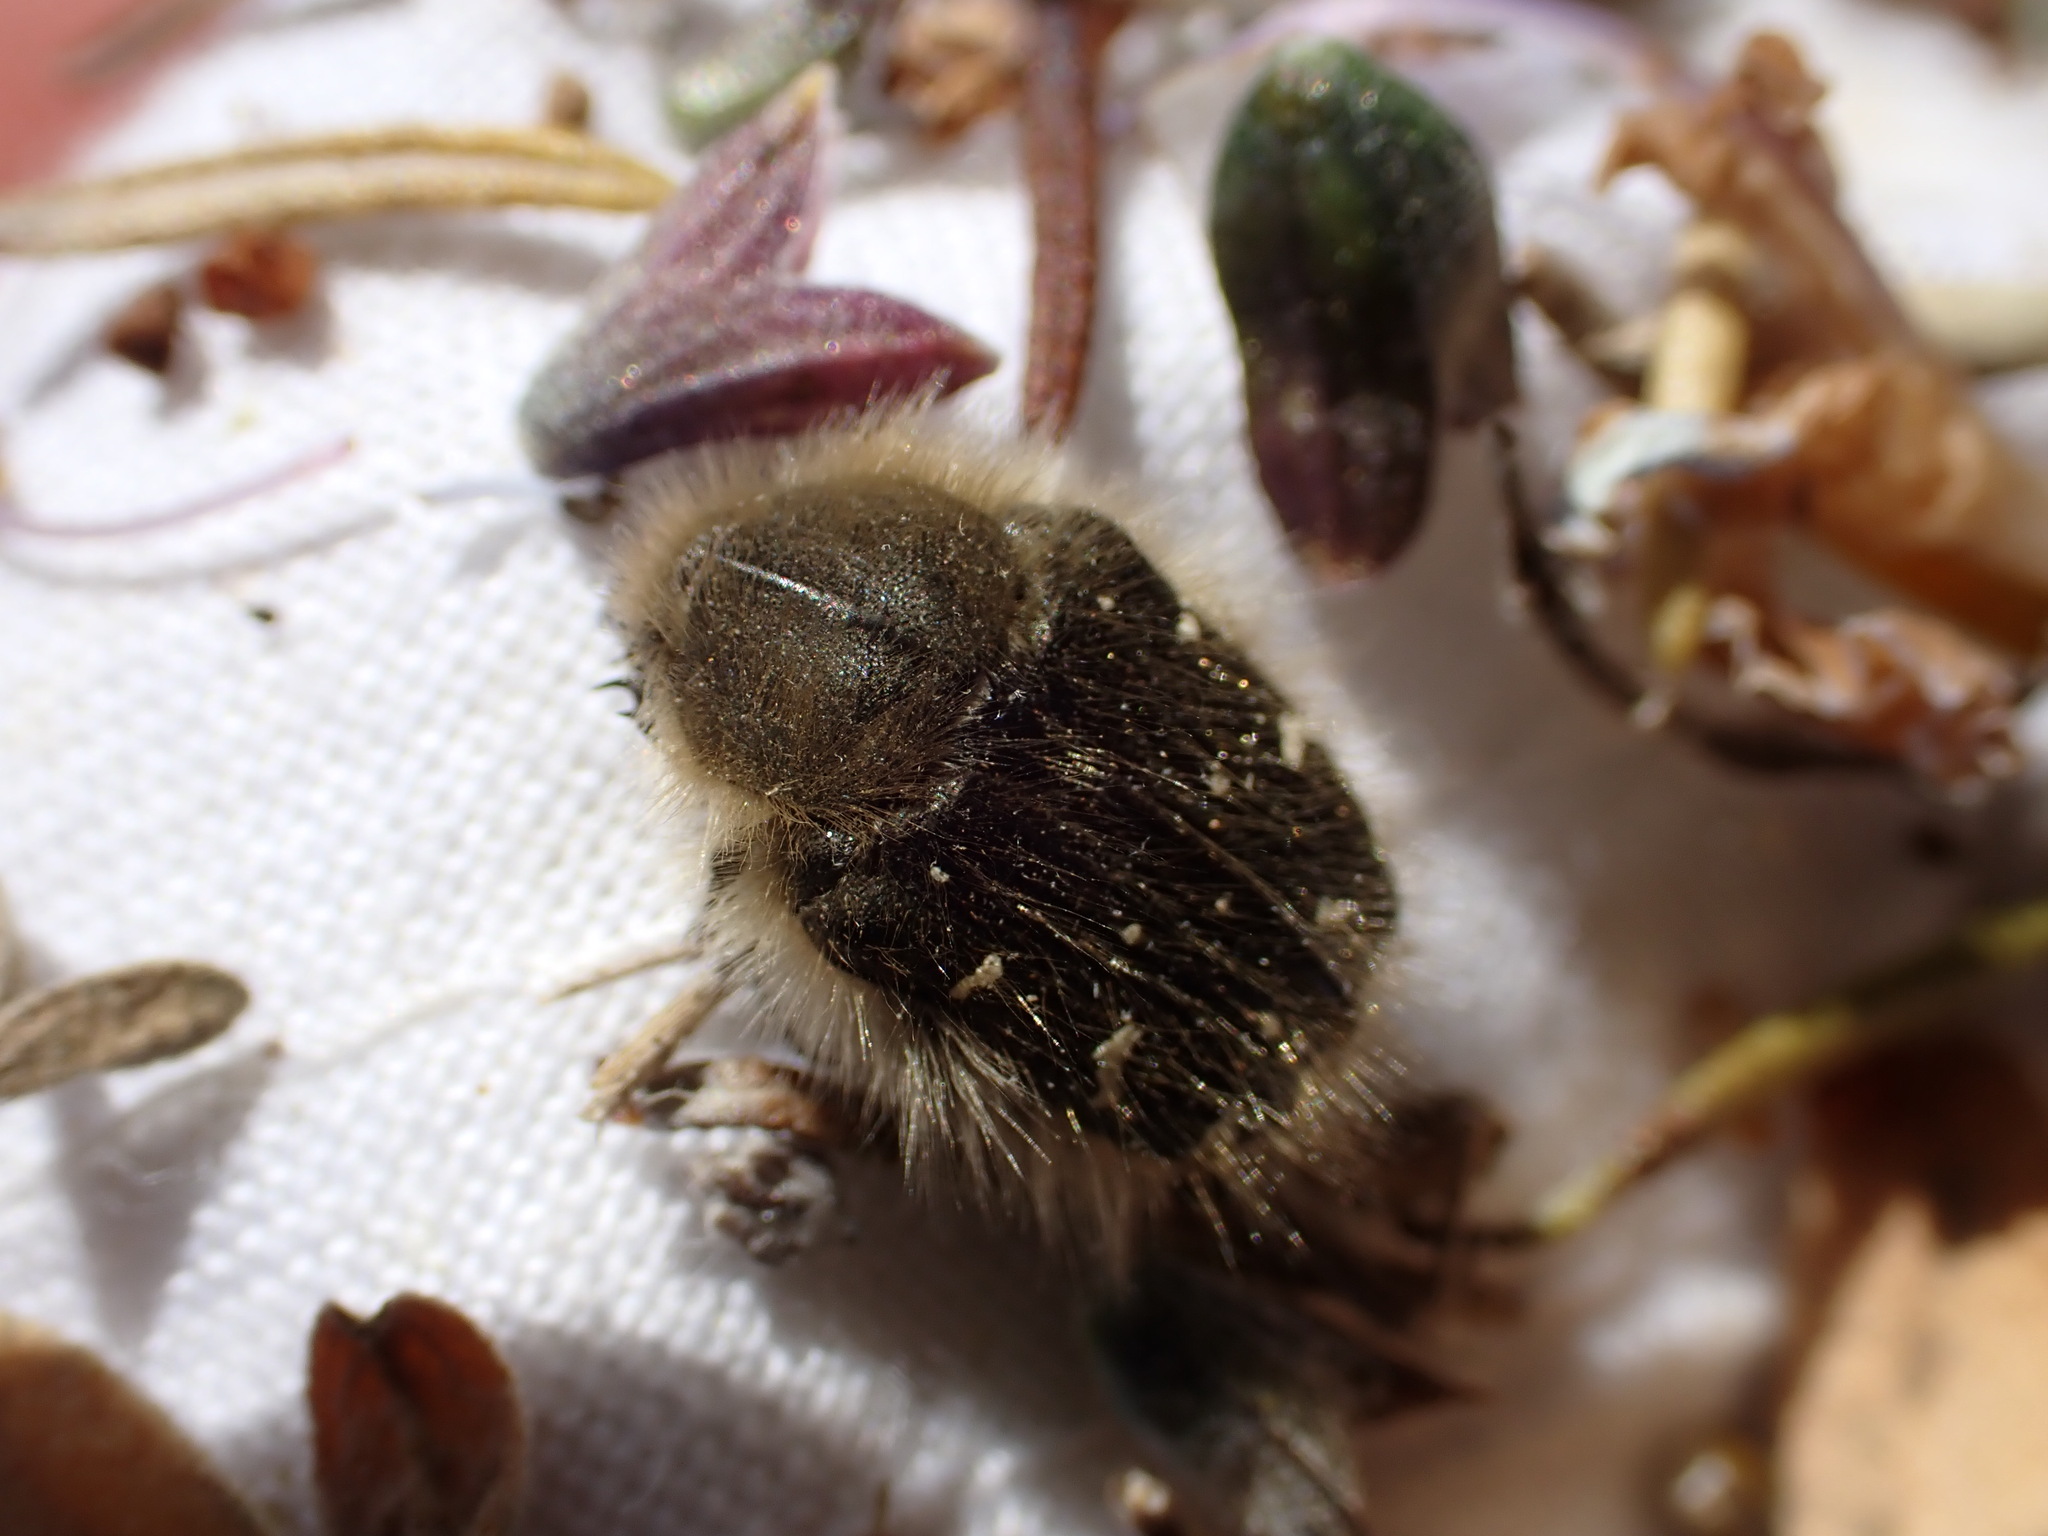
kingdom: Animalia
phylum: Arthropoda
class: Insecta
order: Coleoptera
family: Scarabaeidae
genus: Tropinota
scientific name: Tropinota hirta
